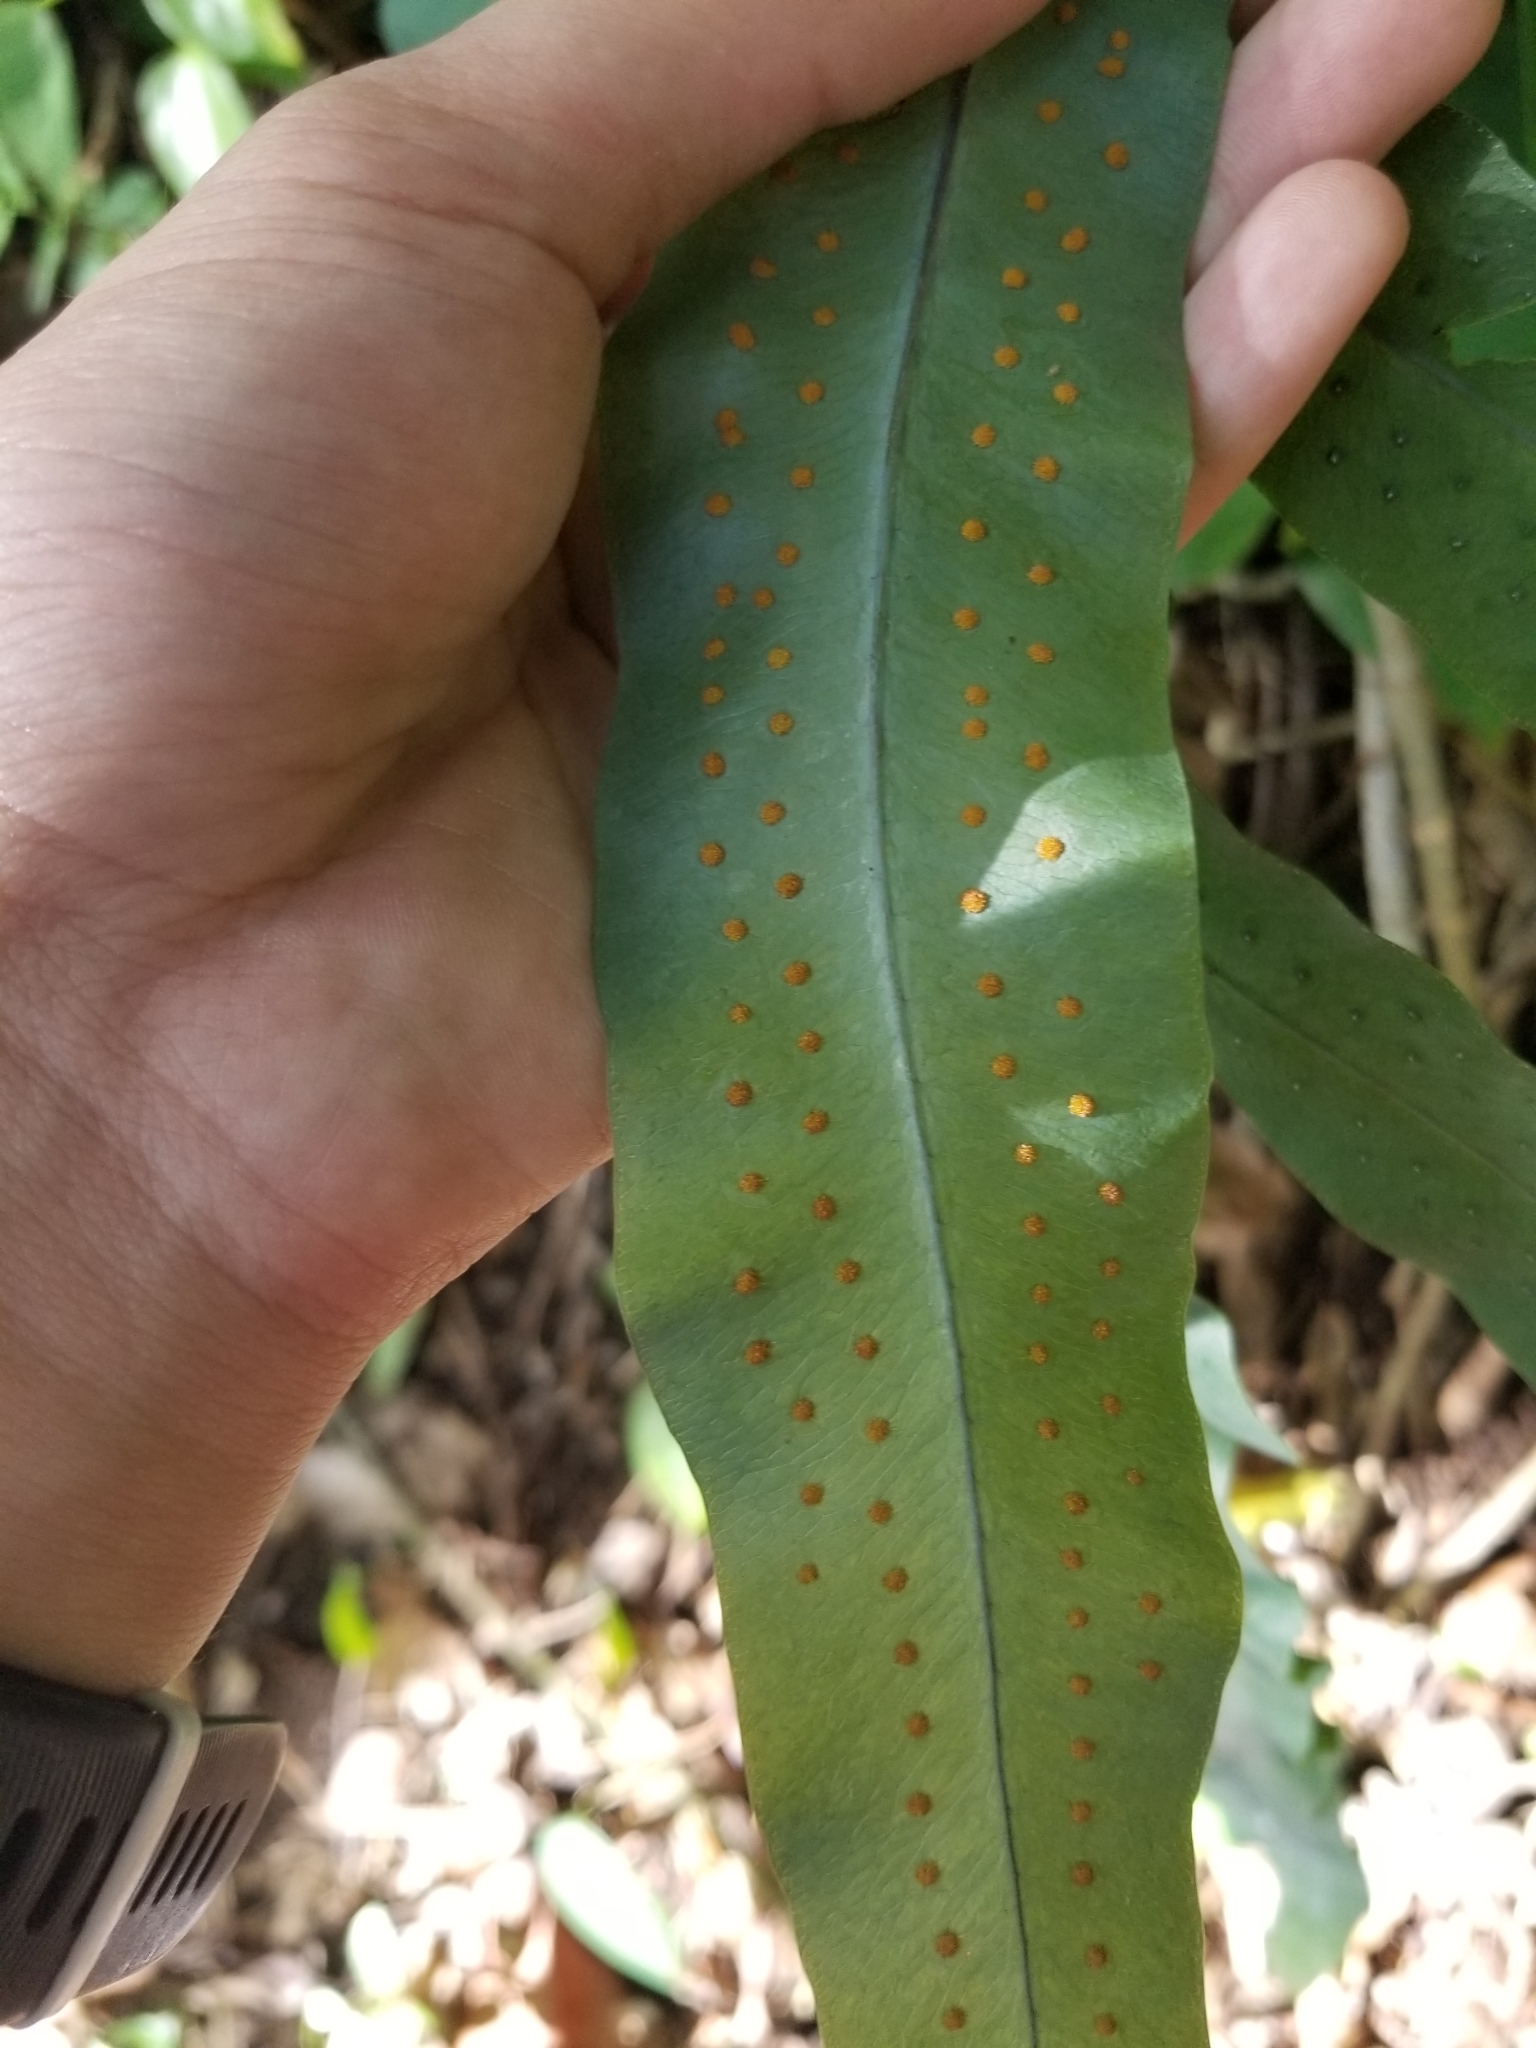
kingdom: Plantae
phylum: Tracheophyta
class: Polypodiopsida
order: Polypodiales
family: Polypodiaceae
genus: Phlebodium
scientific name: Phlebodium aureum
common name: Gold-foot fern
